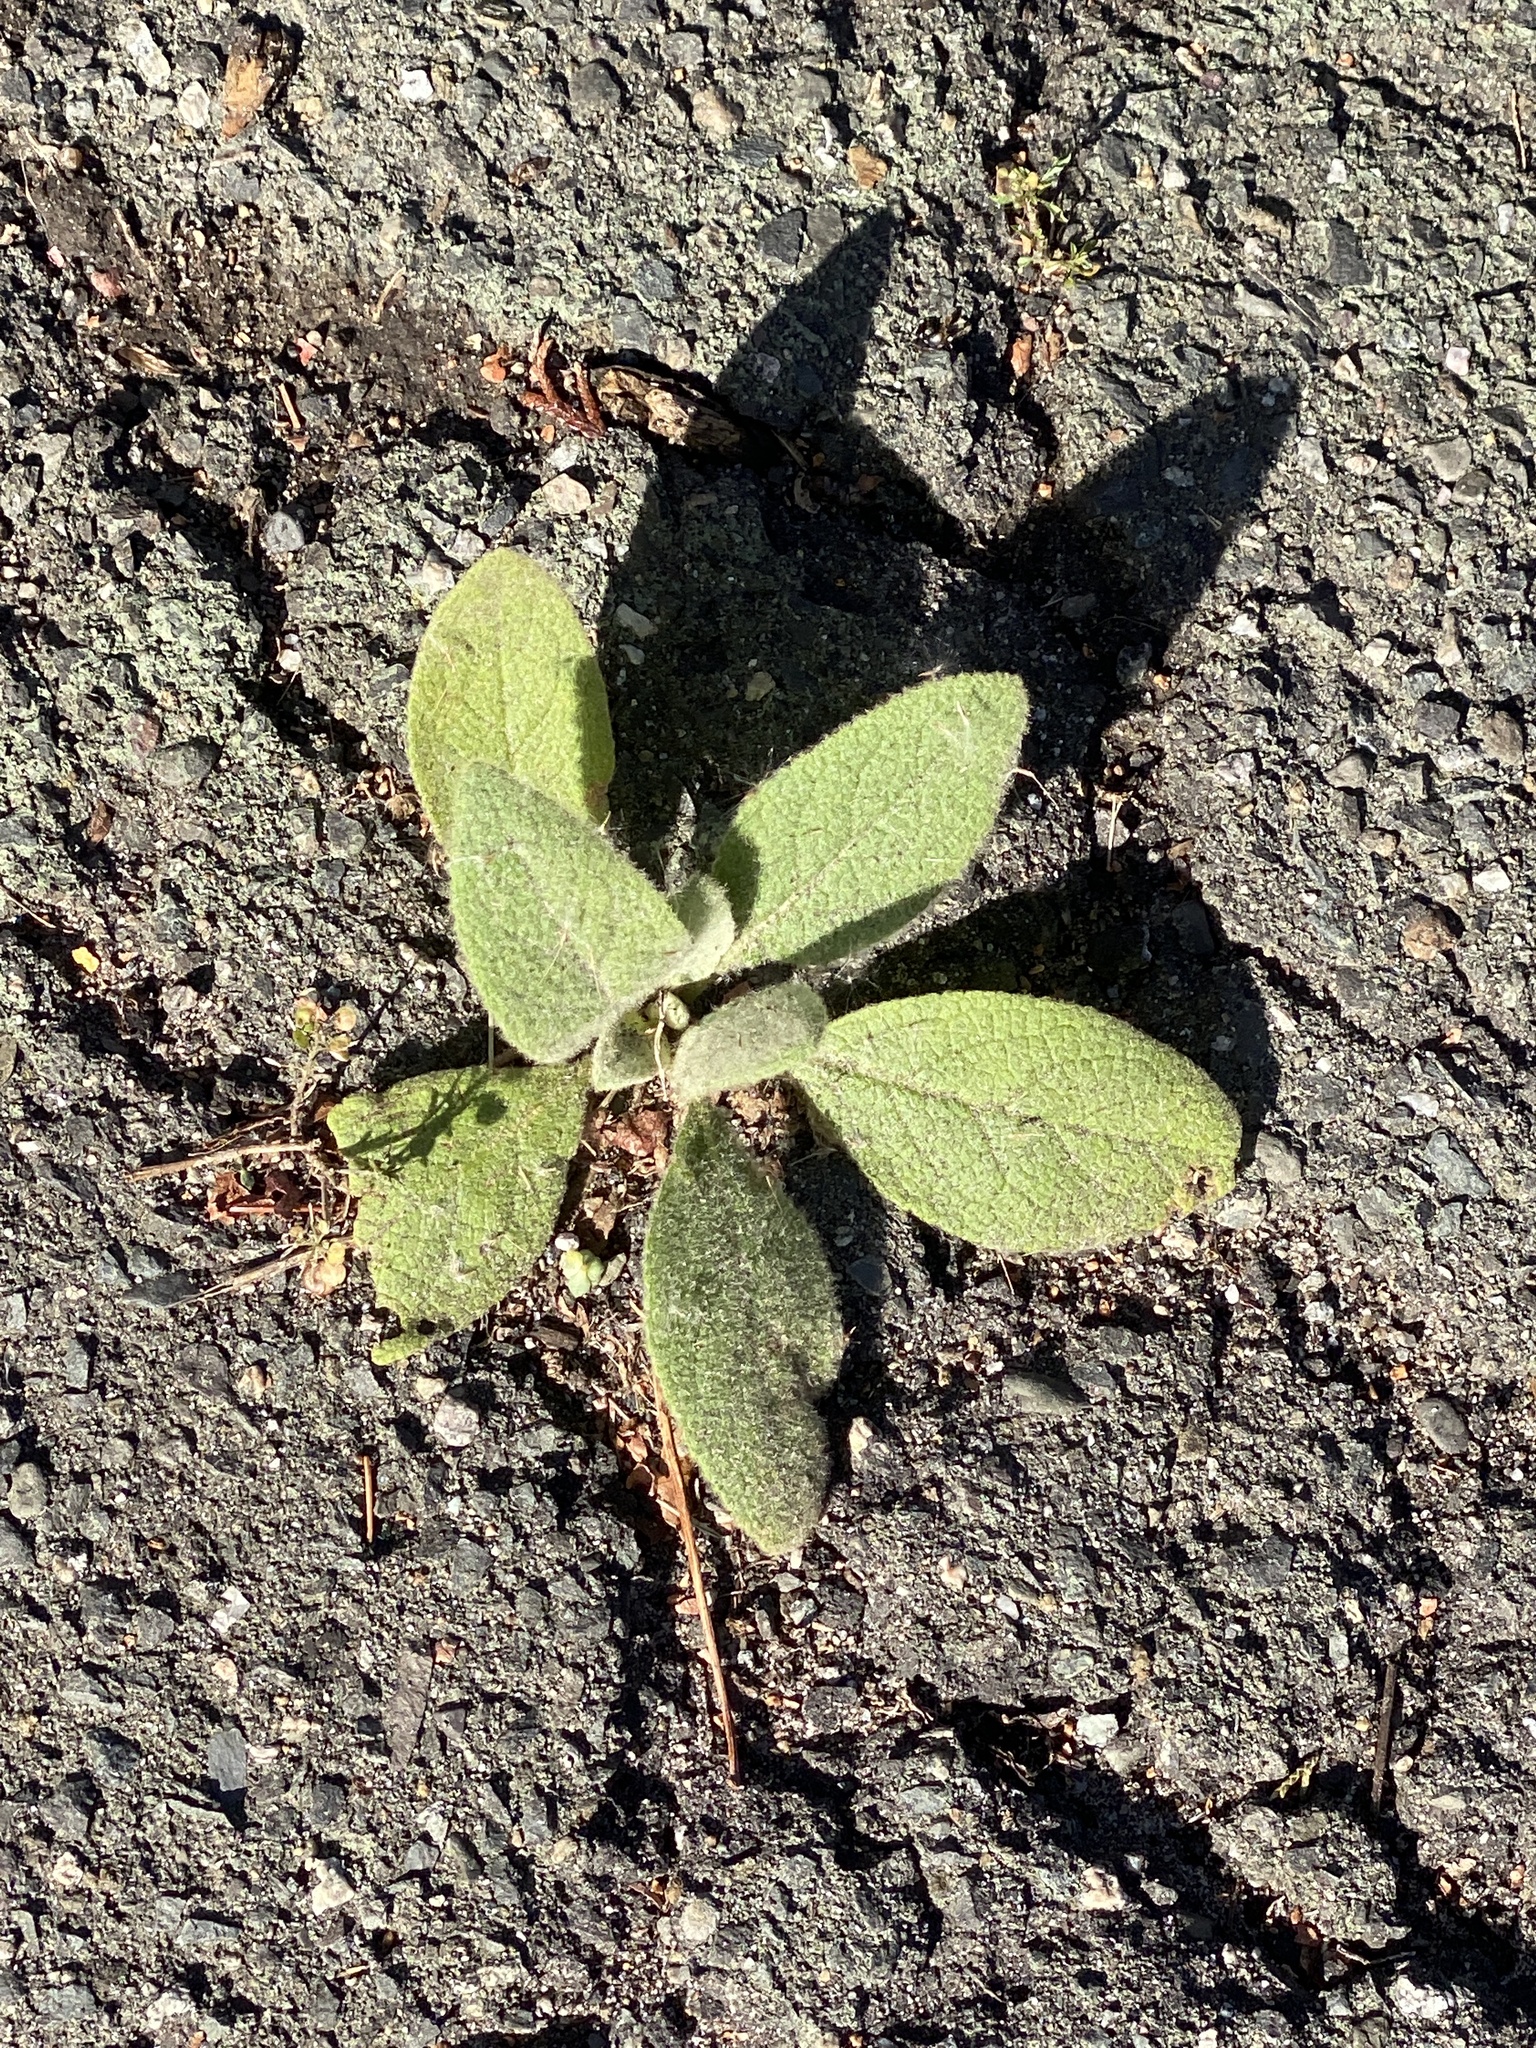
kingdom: Plantae
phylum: Tracheophyta
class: Magnoliopsida
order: Lamiales
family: Scrophulariaceae
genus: Verbascum
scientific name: Verbascum thapsus
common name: Common mullein
